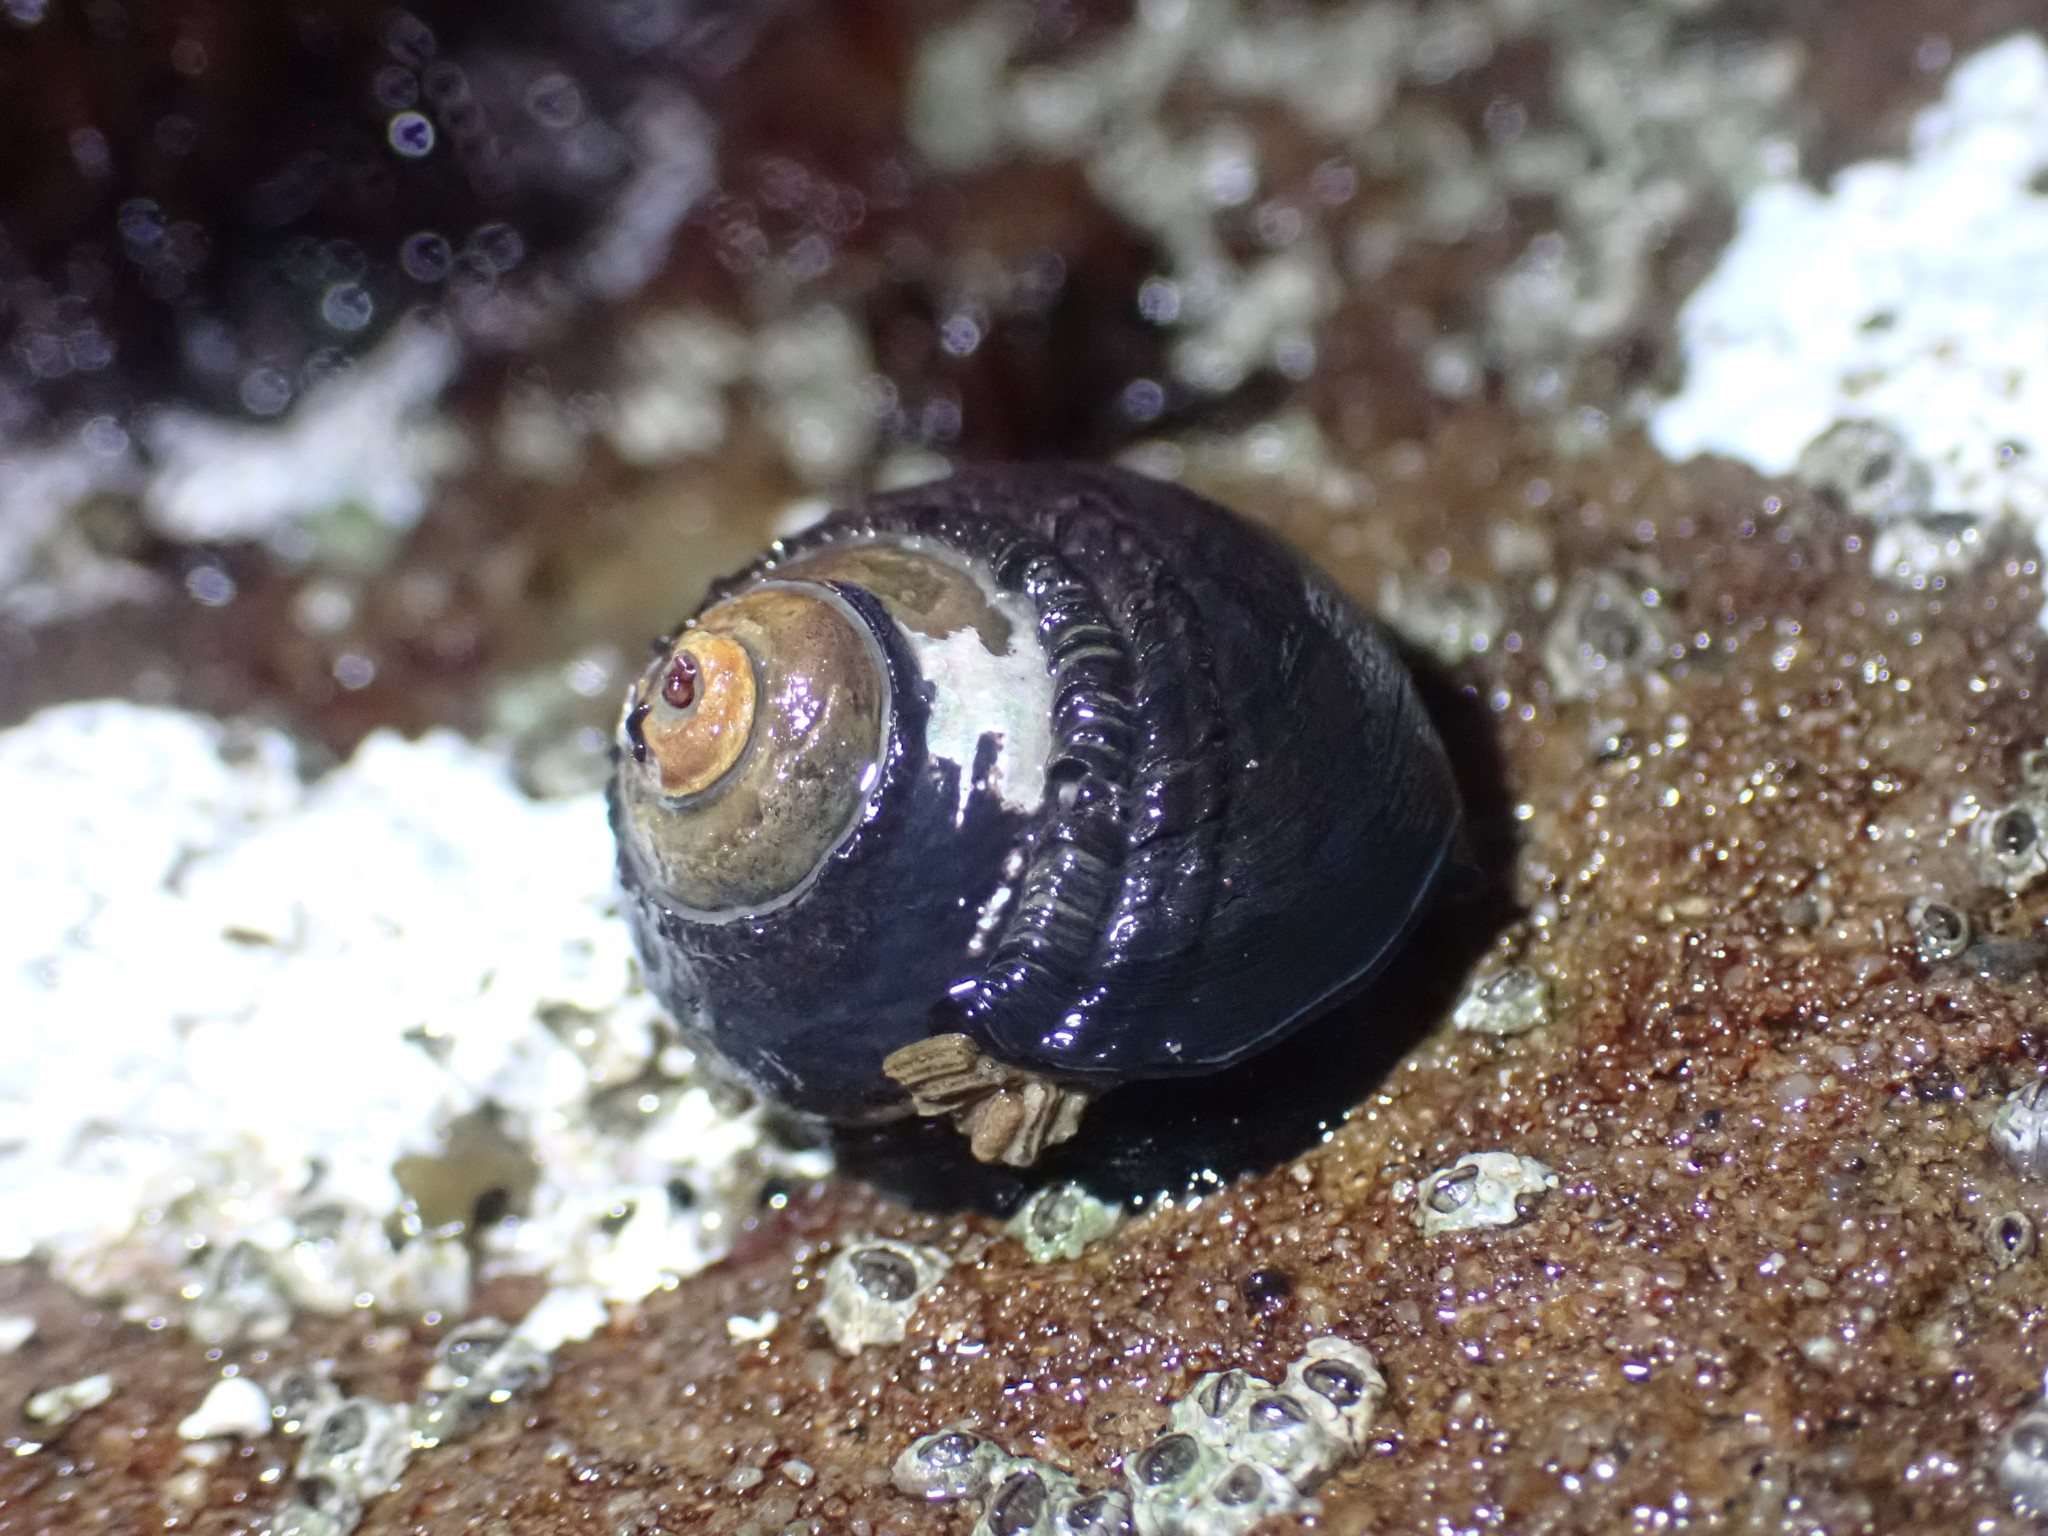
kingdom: Animalia
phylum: Mollusca
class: Gastropoda
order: Trochida
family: Tegulidae
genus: Tegula
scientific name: Tegula funebralis
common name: Black tegula
